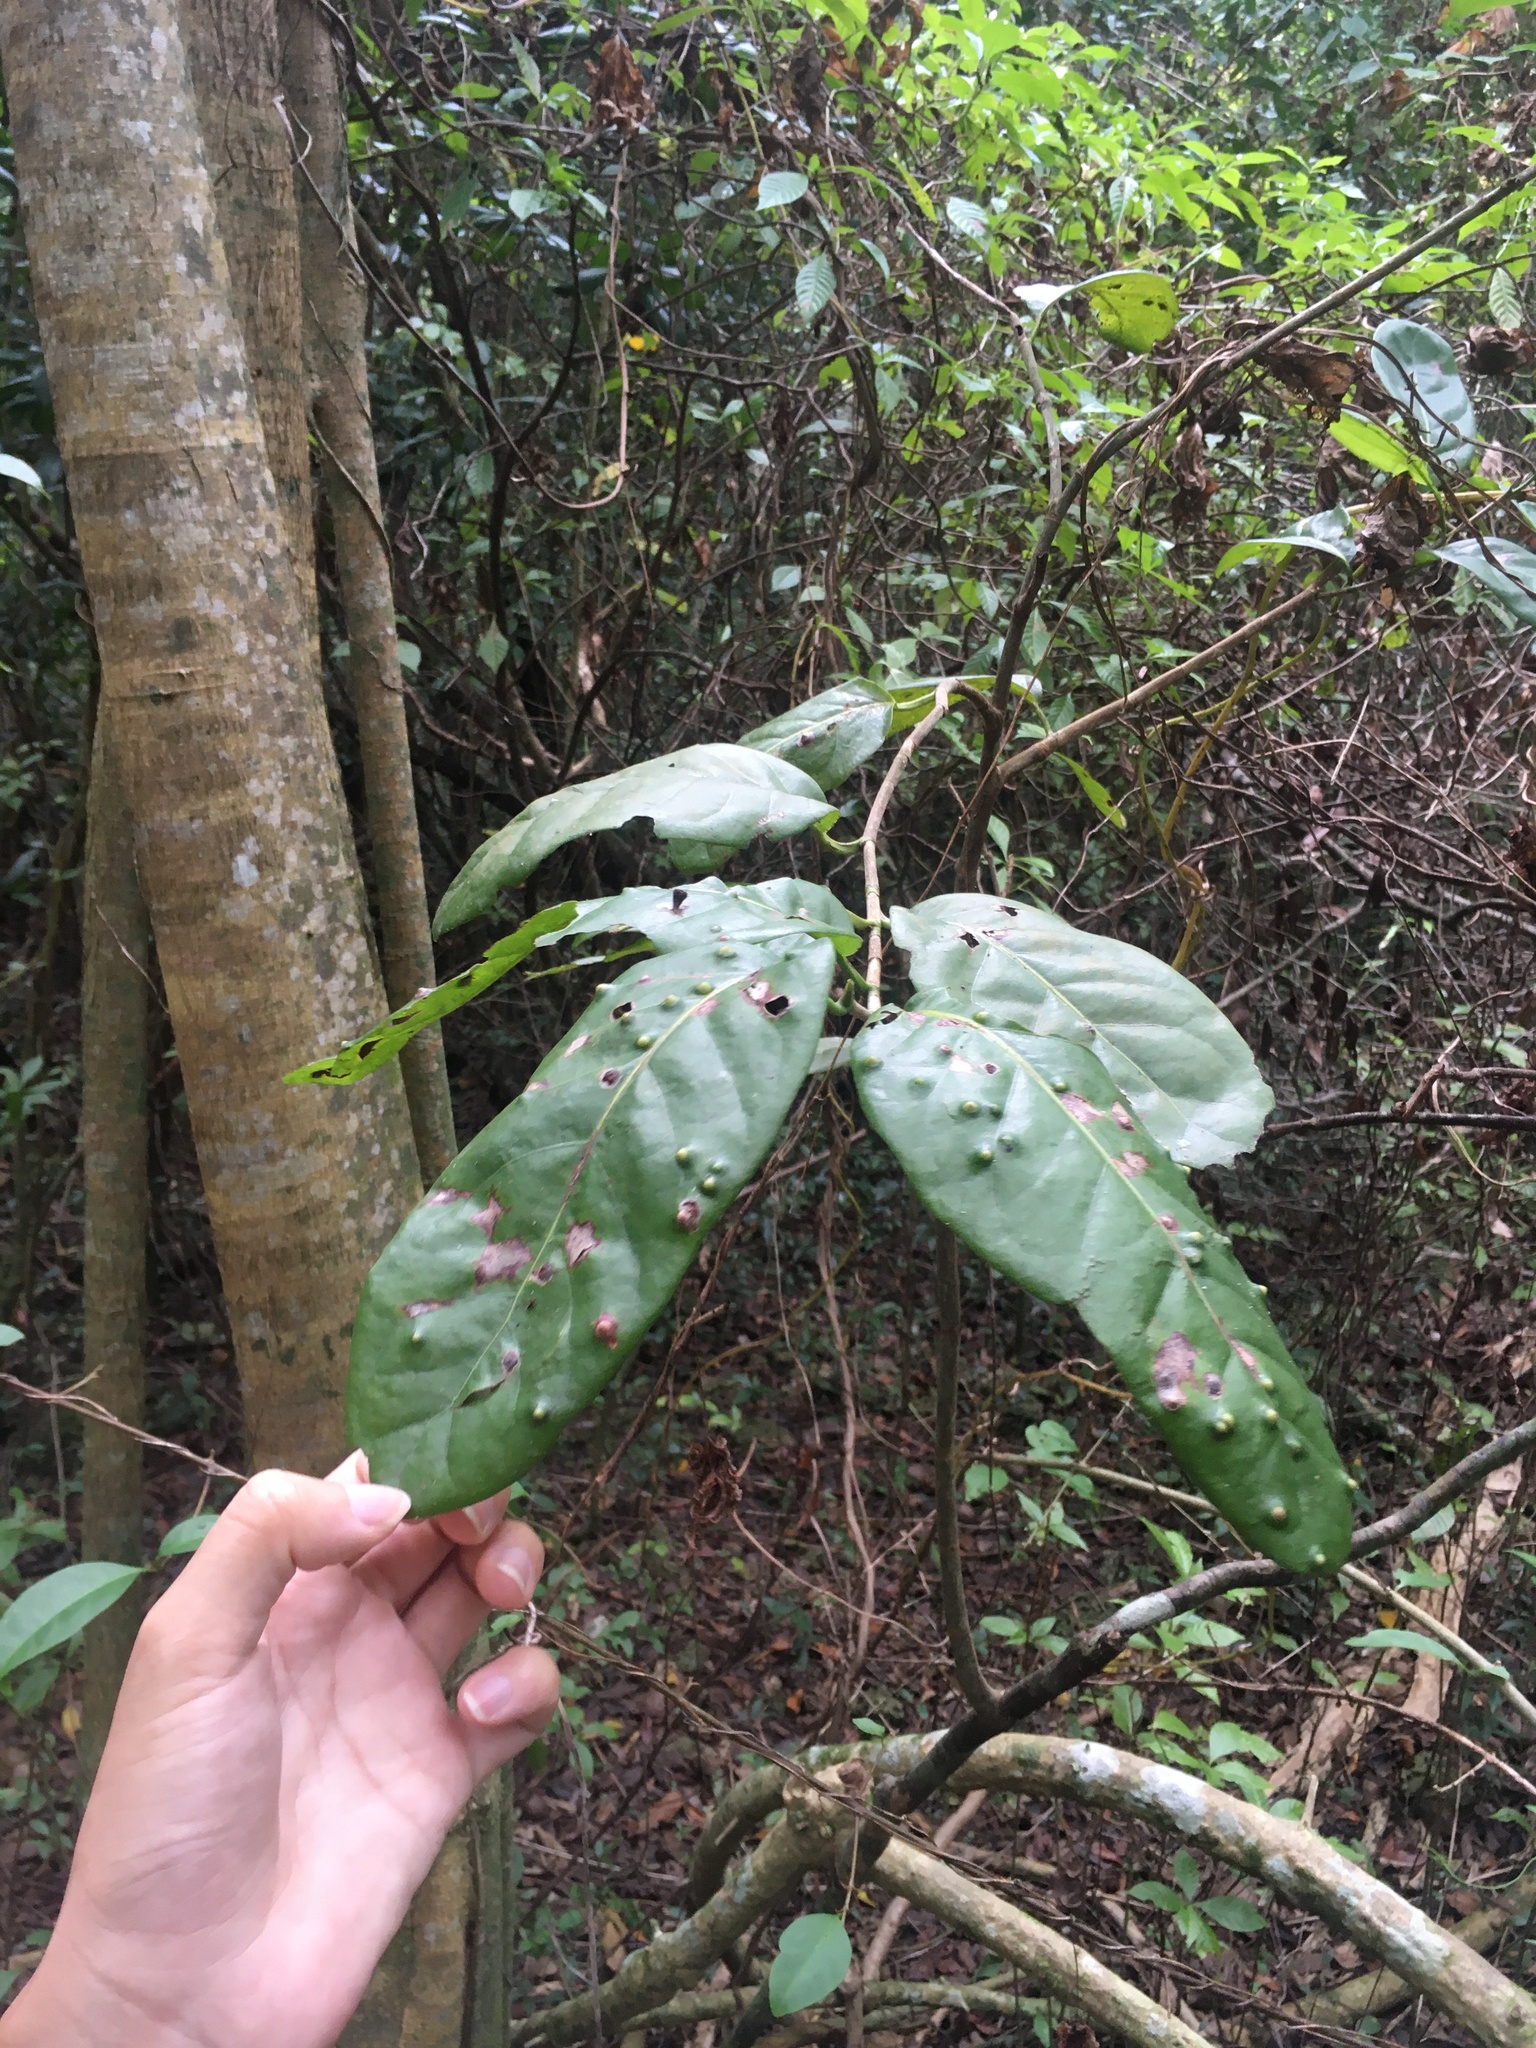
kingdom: Plantae
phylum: Tracheophyta
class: Magnoliopsida
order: Caryophyllales
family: Polygonaceae
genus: Coccoloba
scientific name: Coccoloba diversifolia
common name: Pigeon-plum
